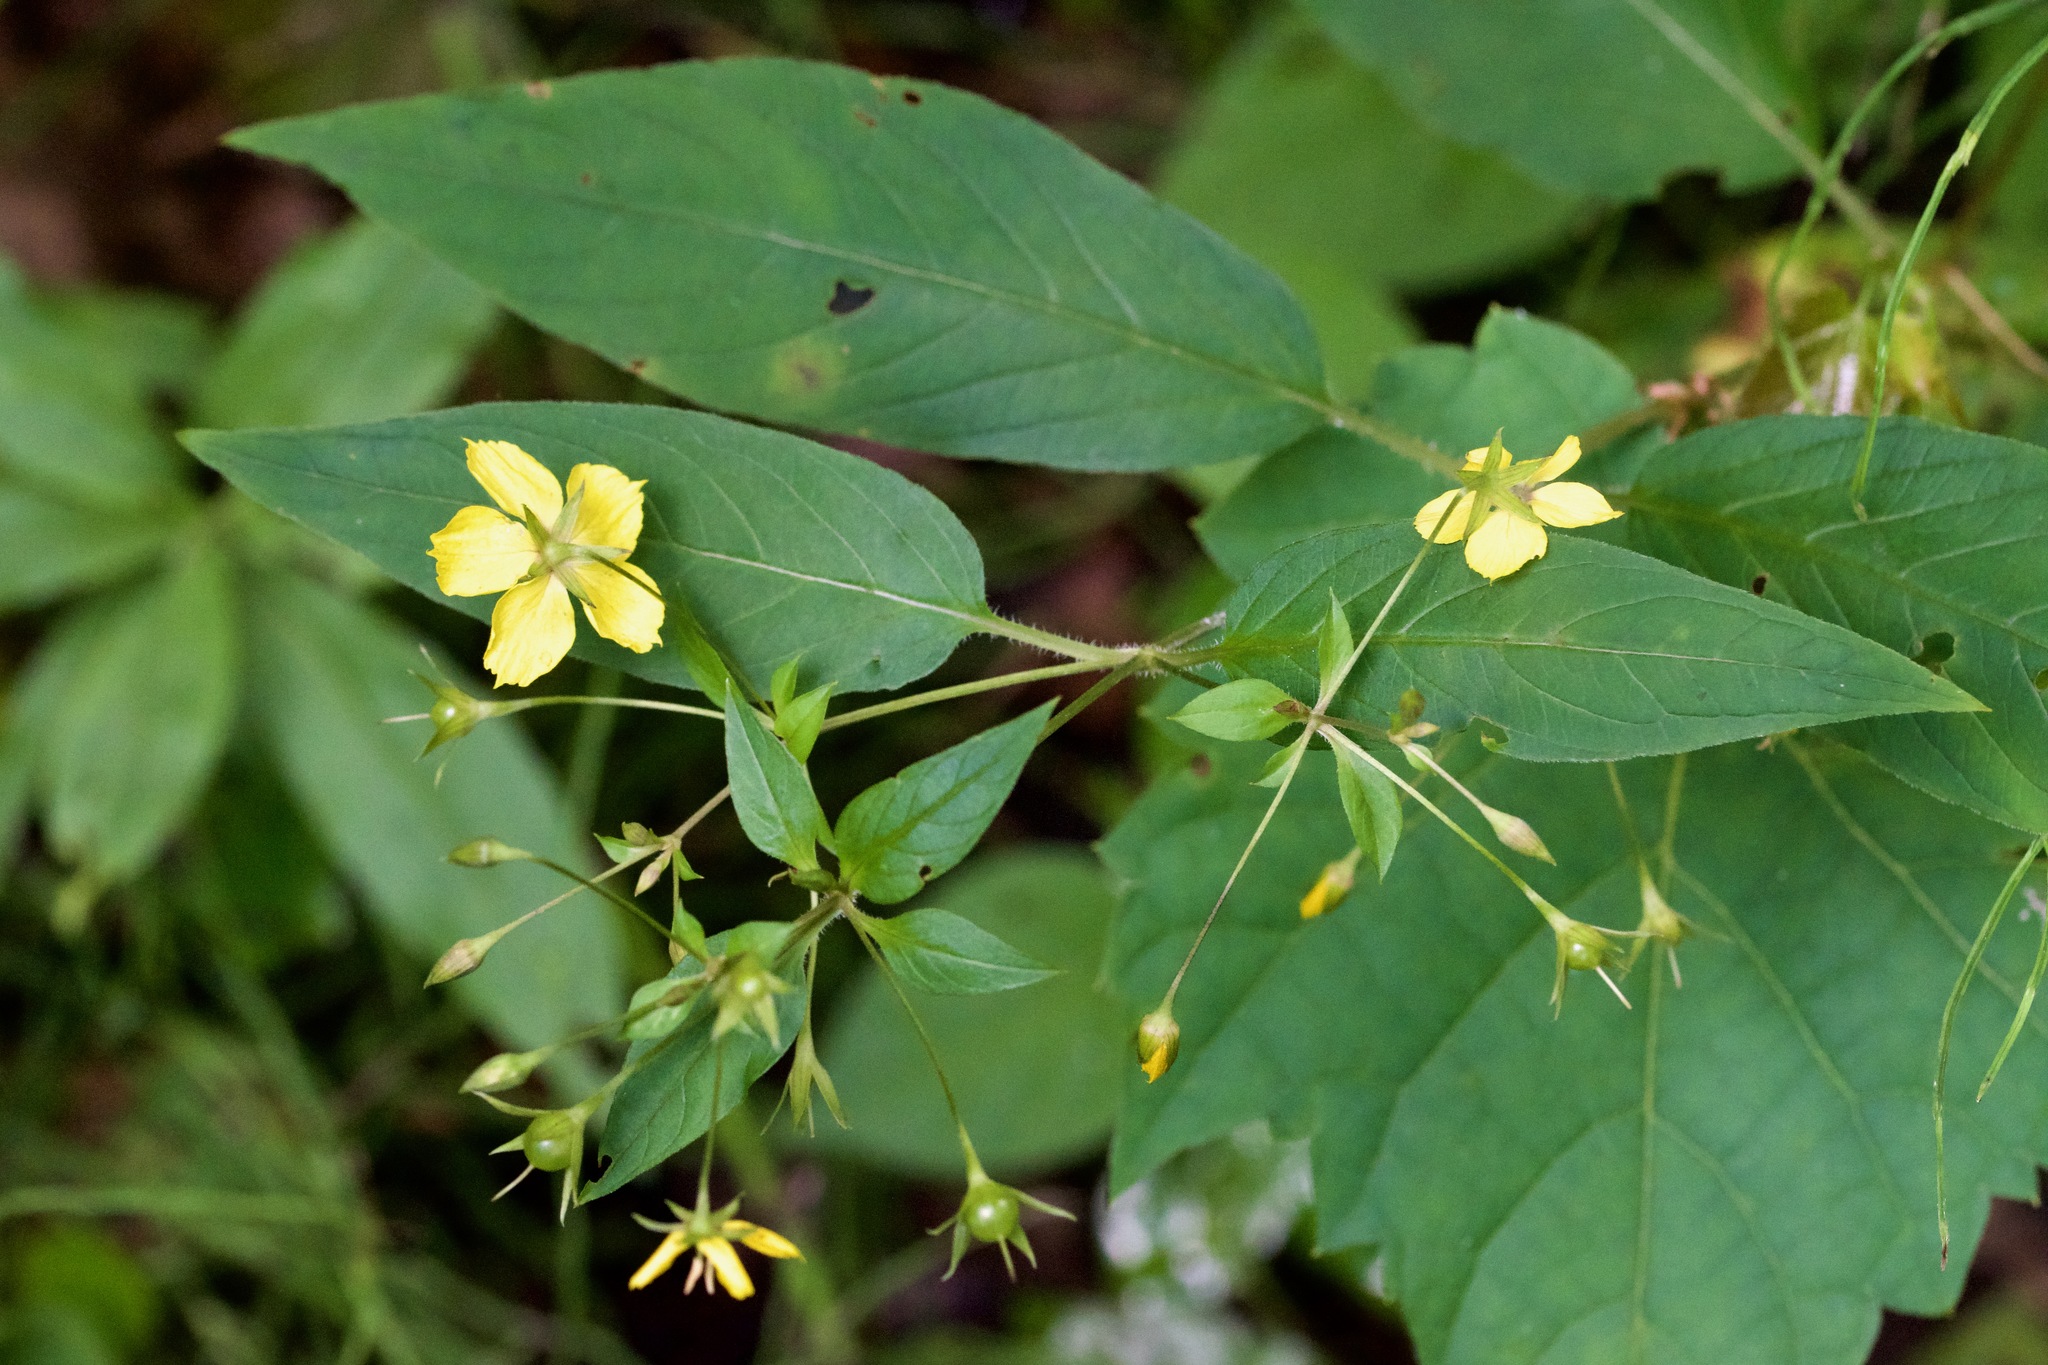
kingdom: Plantae
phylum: Tracheophyta
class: Magnoliopsida
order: Ericales
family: Primulaceae
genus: Lysimachia
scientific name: Lysimachia ciliata
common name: Fringed loosestrife
